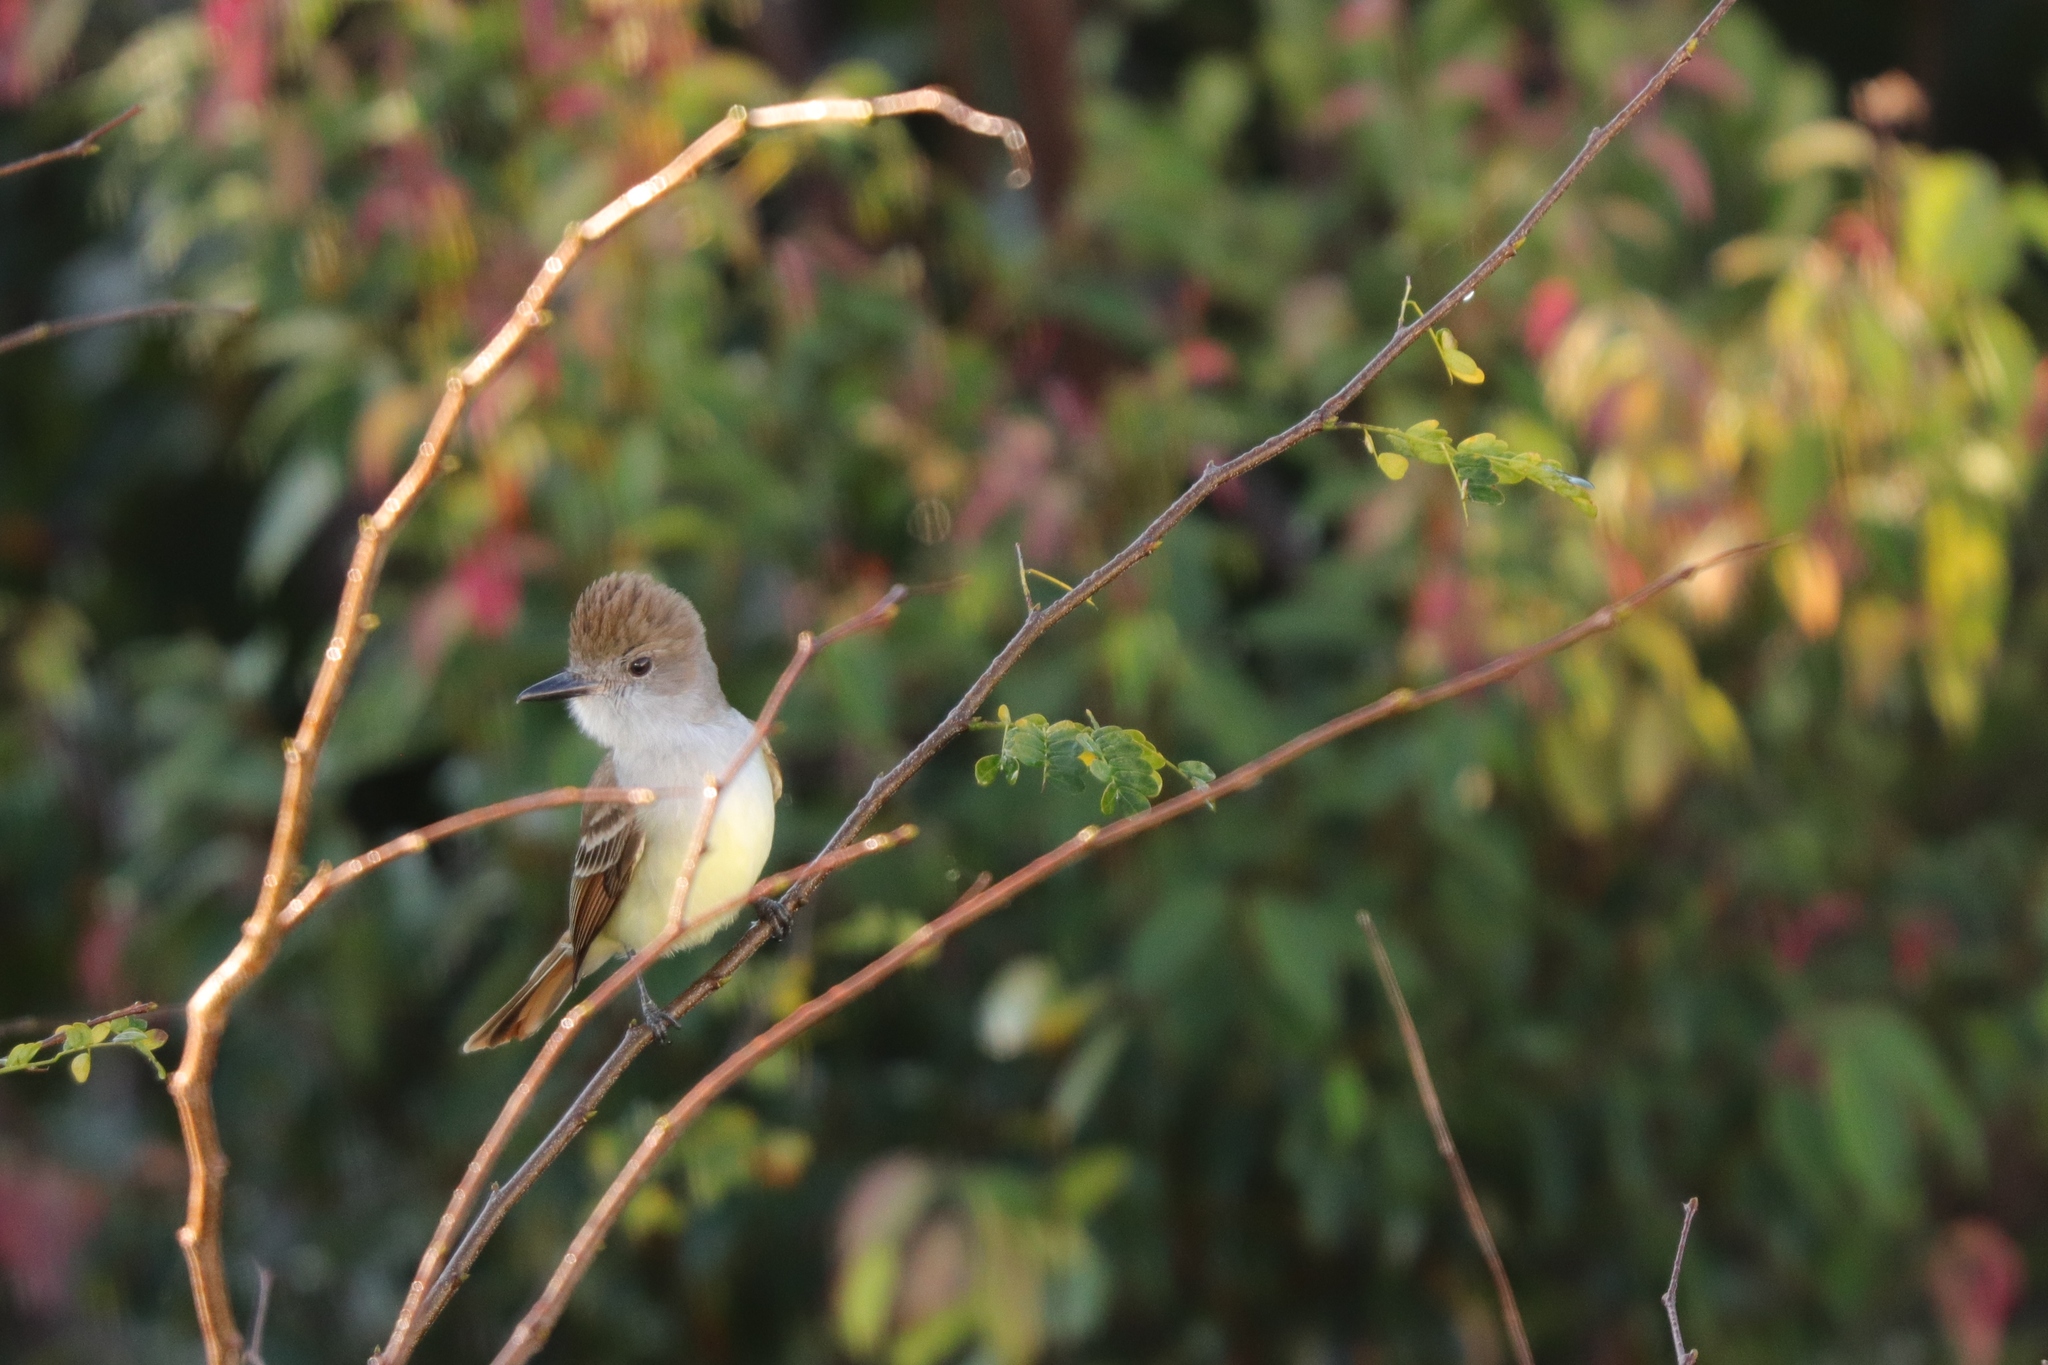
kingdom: Animalia
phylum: Chordata
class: Aves
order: Passeriformes
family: Tyrannidae
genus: Myiarchus
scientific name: Myiarchus tyrannulus
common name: Brown-crested flycatcher
